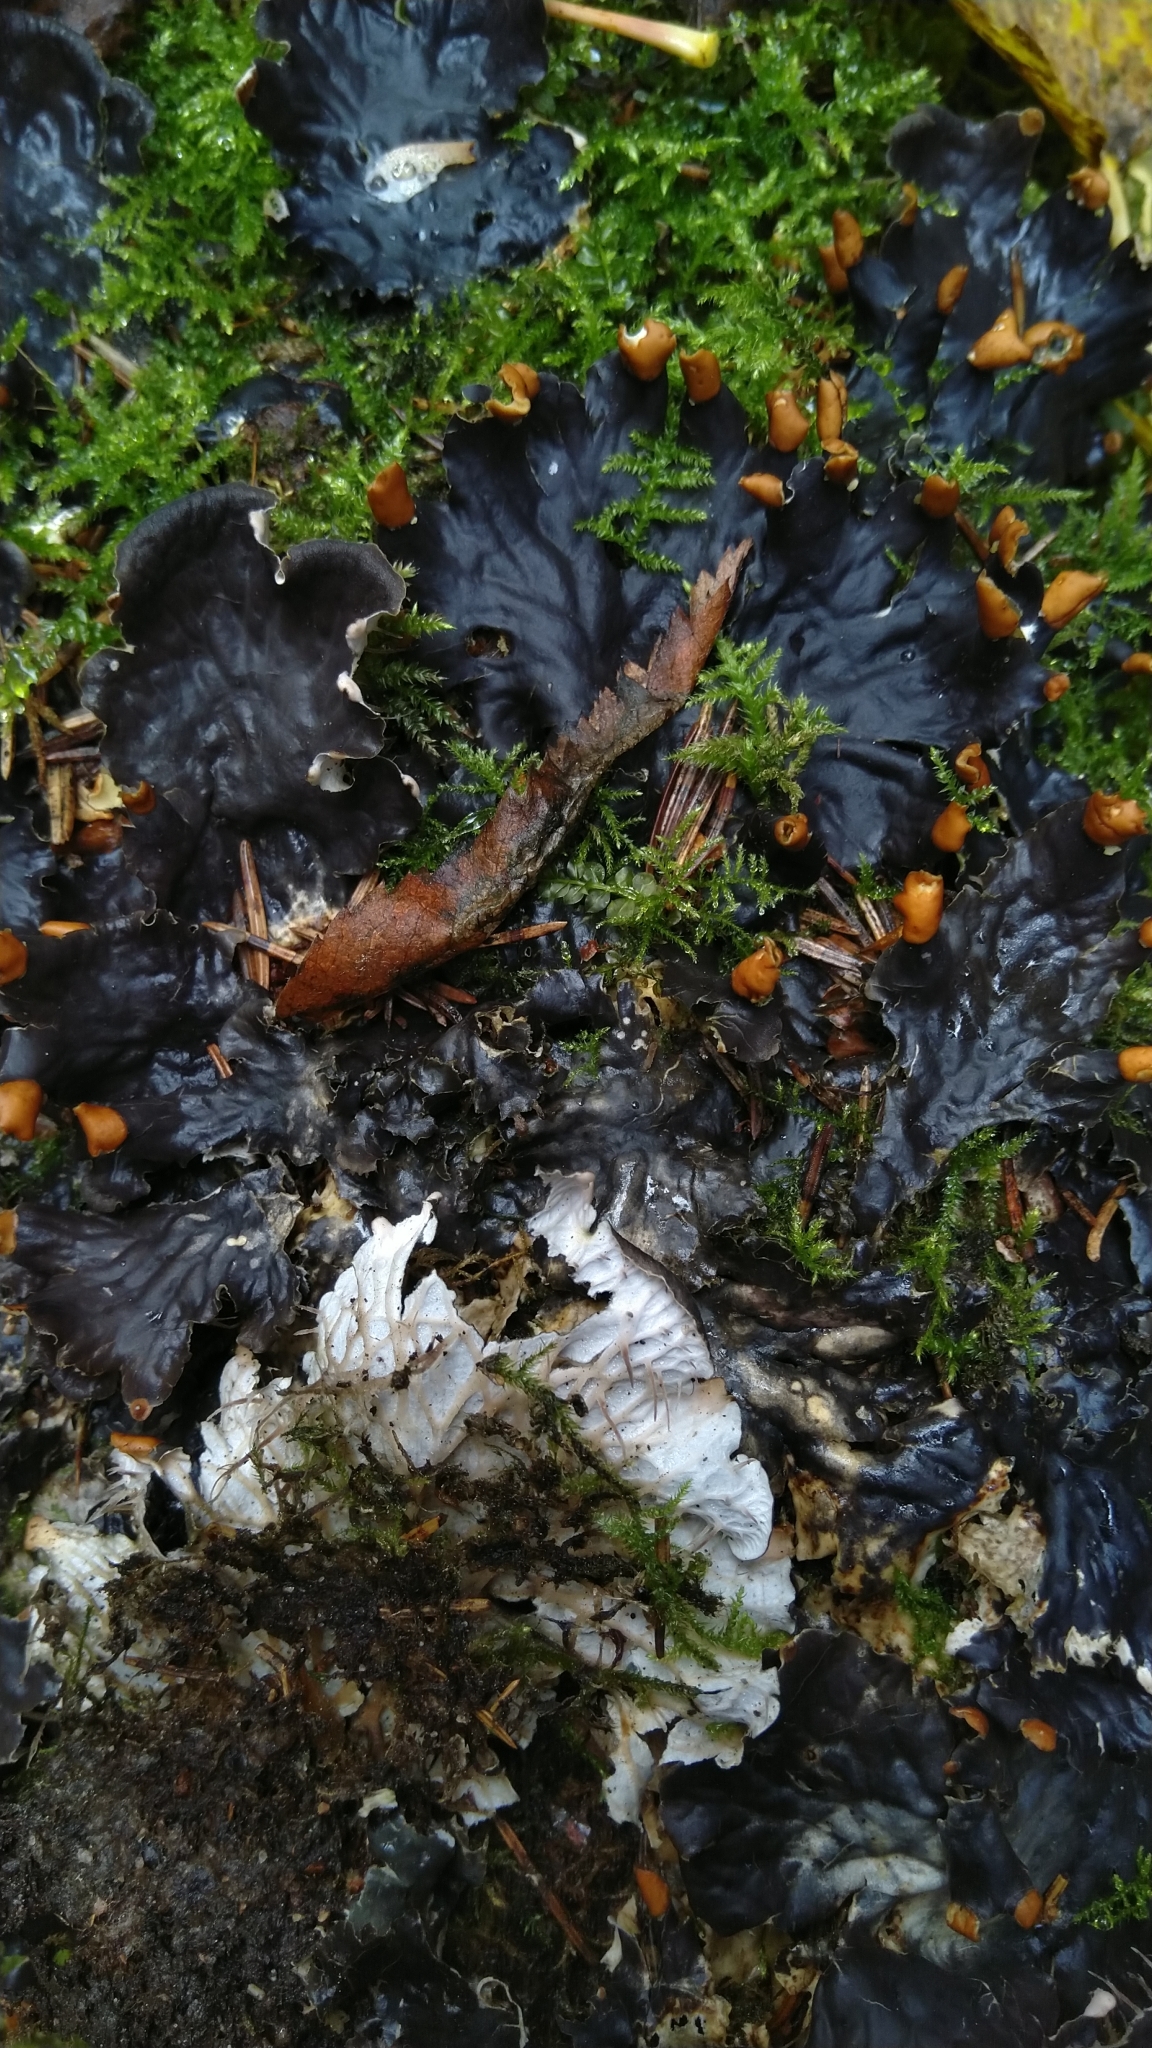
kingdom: Fungi
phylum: Ascomycota
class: Lecanoromycetes
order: Peltigerales
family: Peltigeraceae
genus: Peltigera
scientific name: Peltigera membranacea
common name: Membranous pelt lichen
